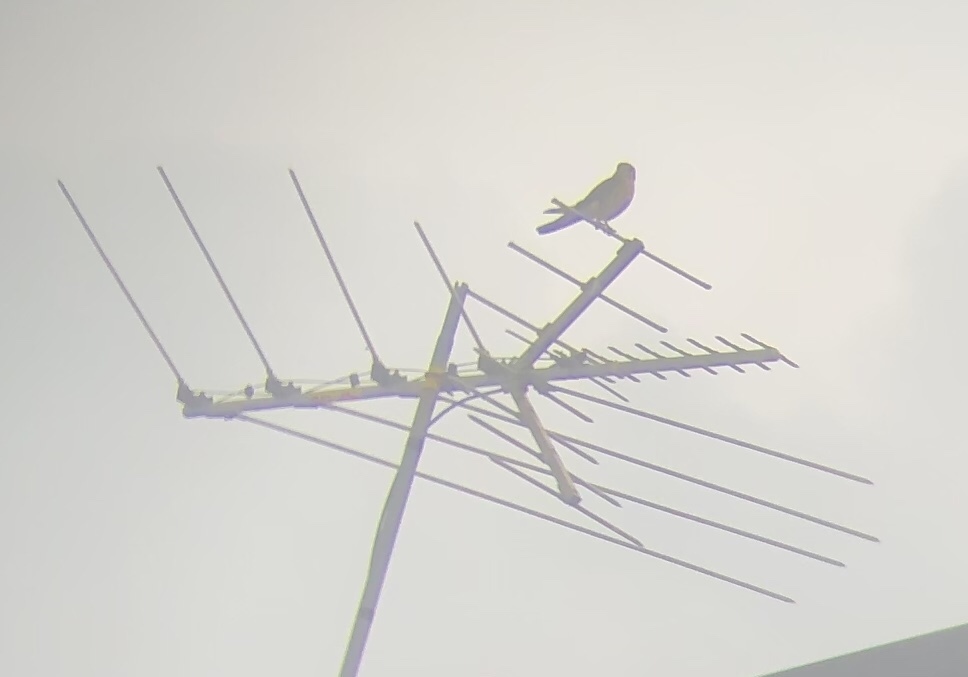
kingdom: Animalia
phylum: Chordata
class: Aves
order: Falconiformes
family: Falconidae
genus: Falco
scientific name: Falco sparverius
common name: American kestrel
